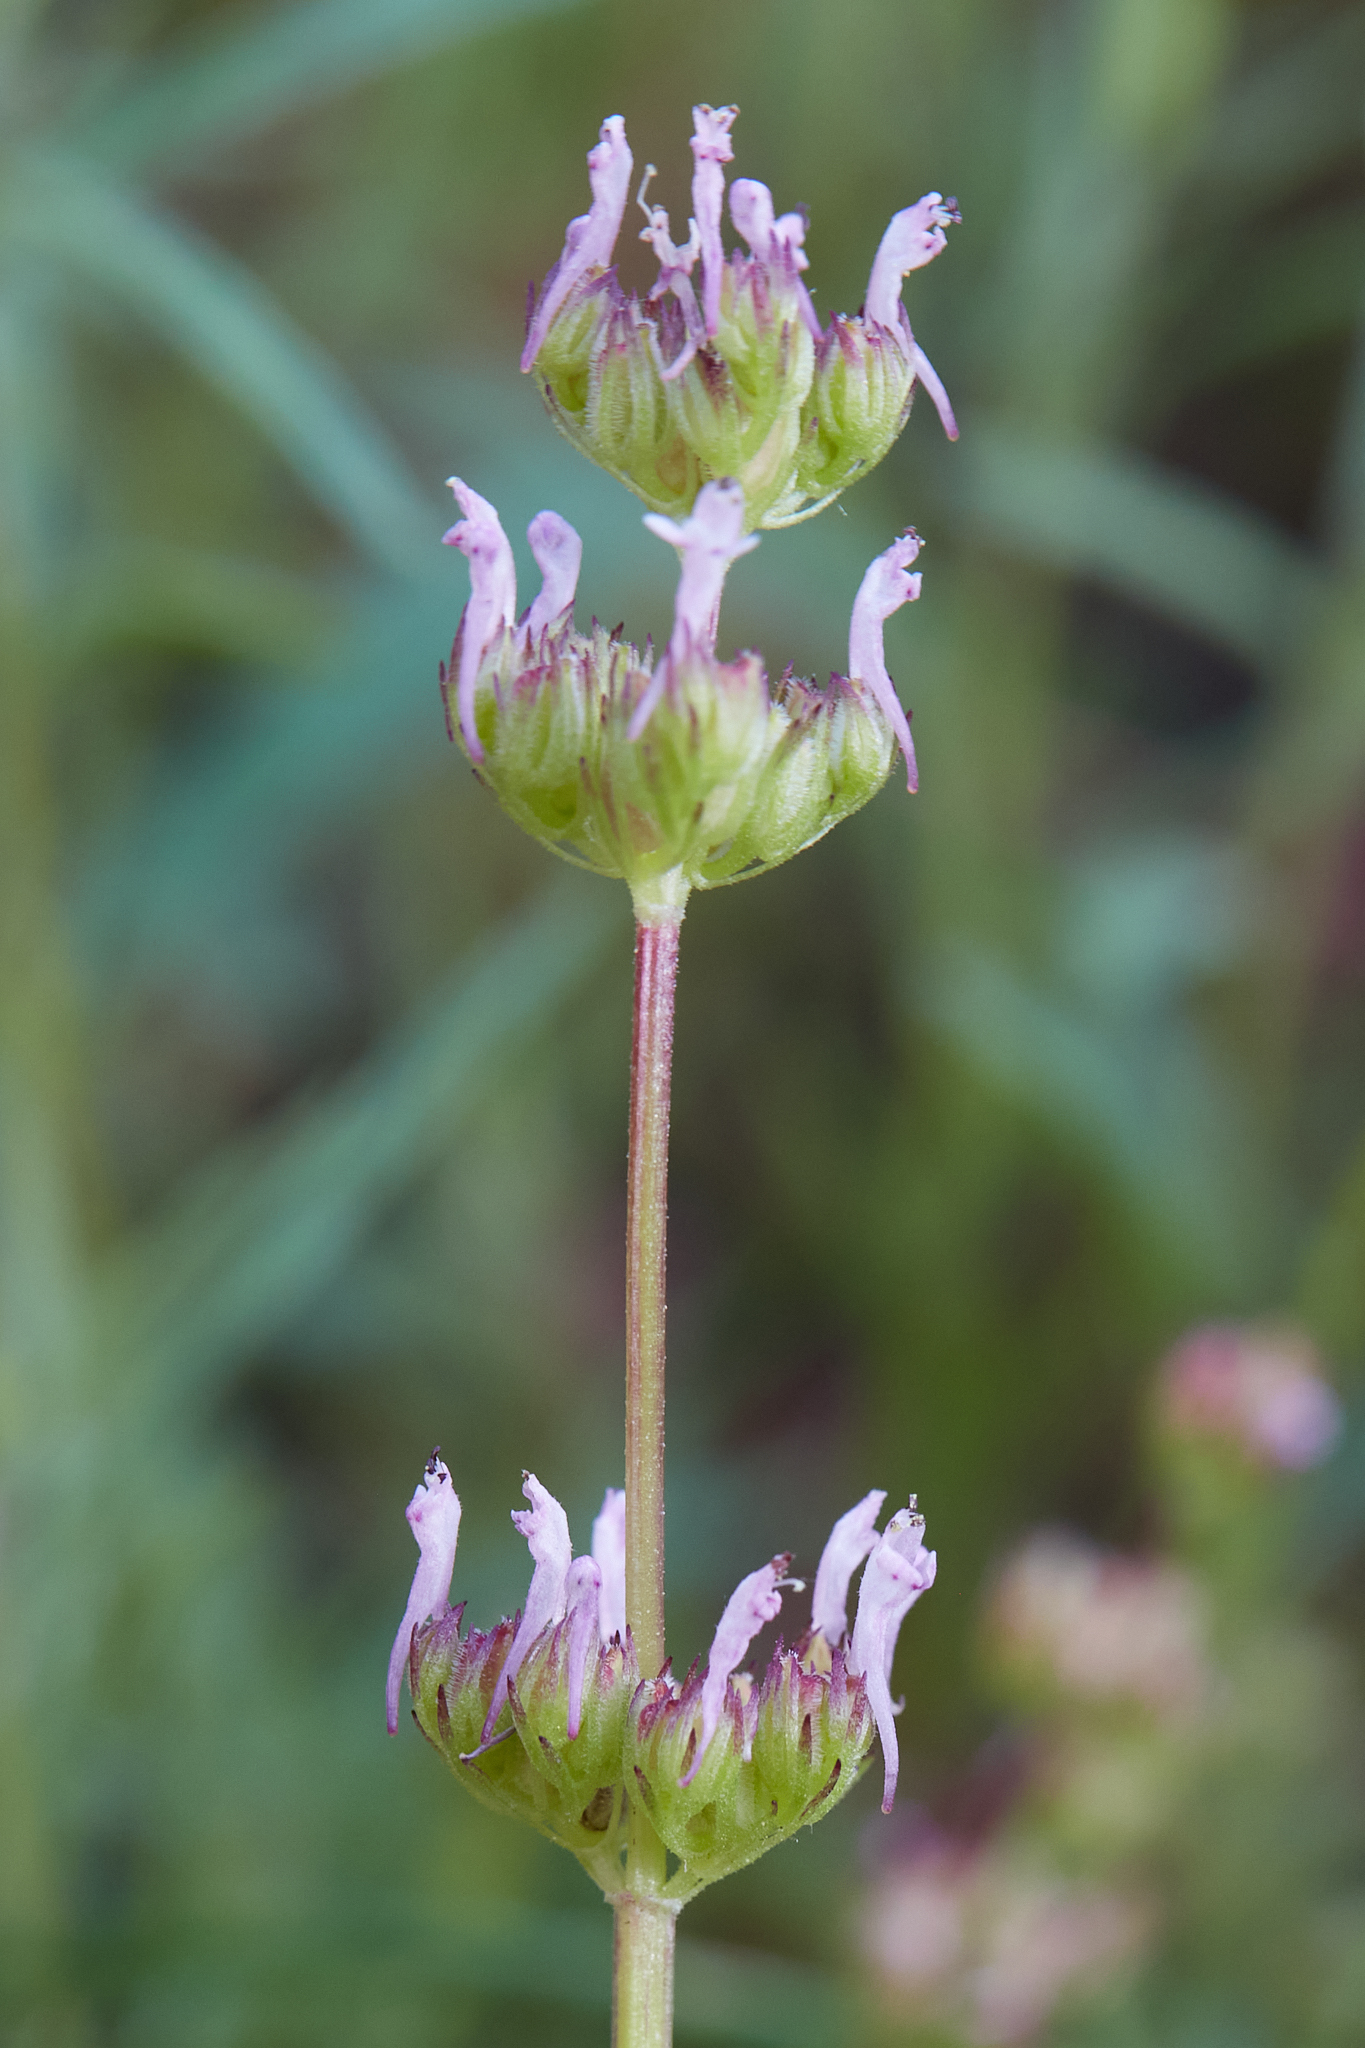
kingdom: Plantae
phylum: Tracheophyta
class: Magnoliopsida
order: Dipsacales
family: Caprifoliaceae
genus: Plectritis
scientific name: Plectritis ciliosa
